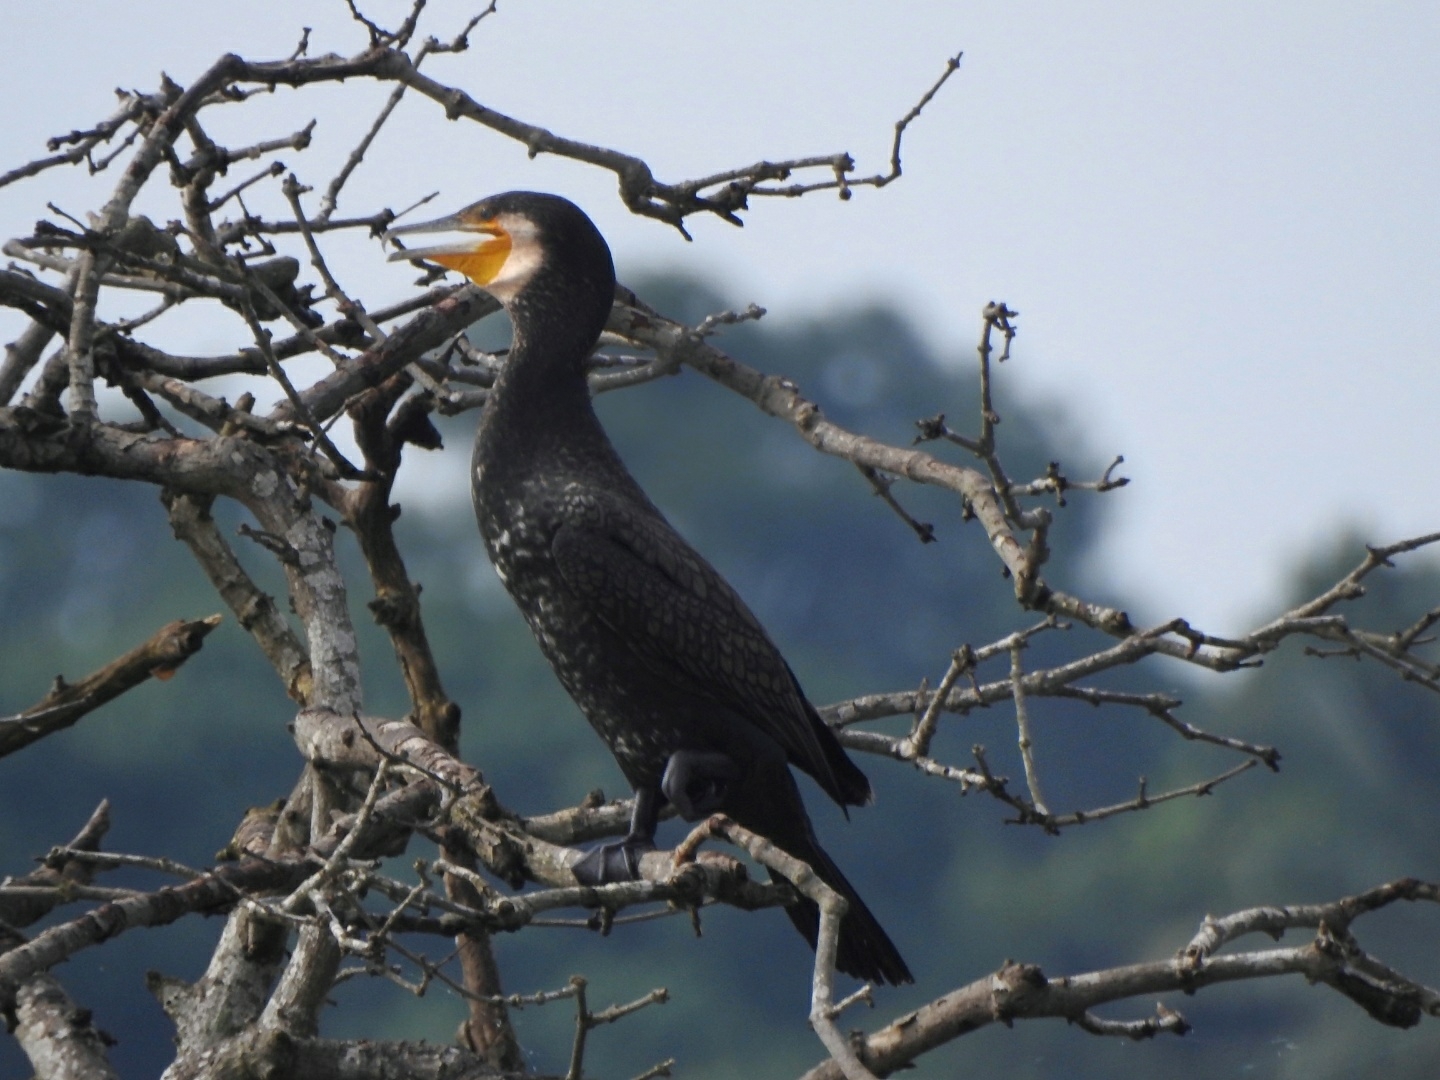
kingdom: Animalia
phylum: Chordata
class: Aves
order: Suliformes
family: Phalacrocoracidae
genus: Phalacrocorax
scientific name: Phalacrocorax carbo
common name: Great cormorant
